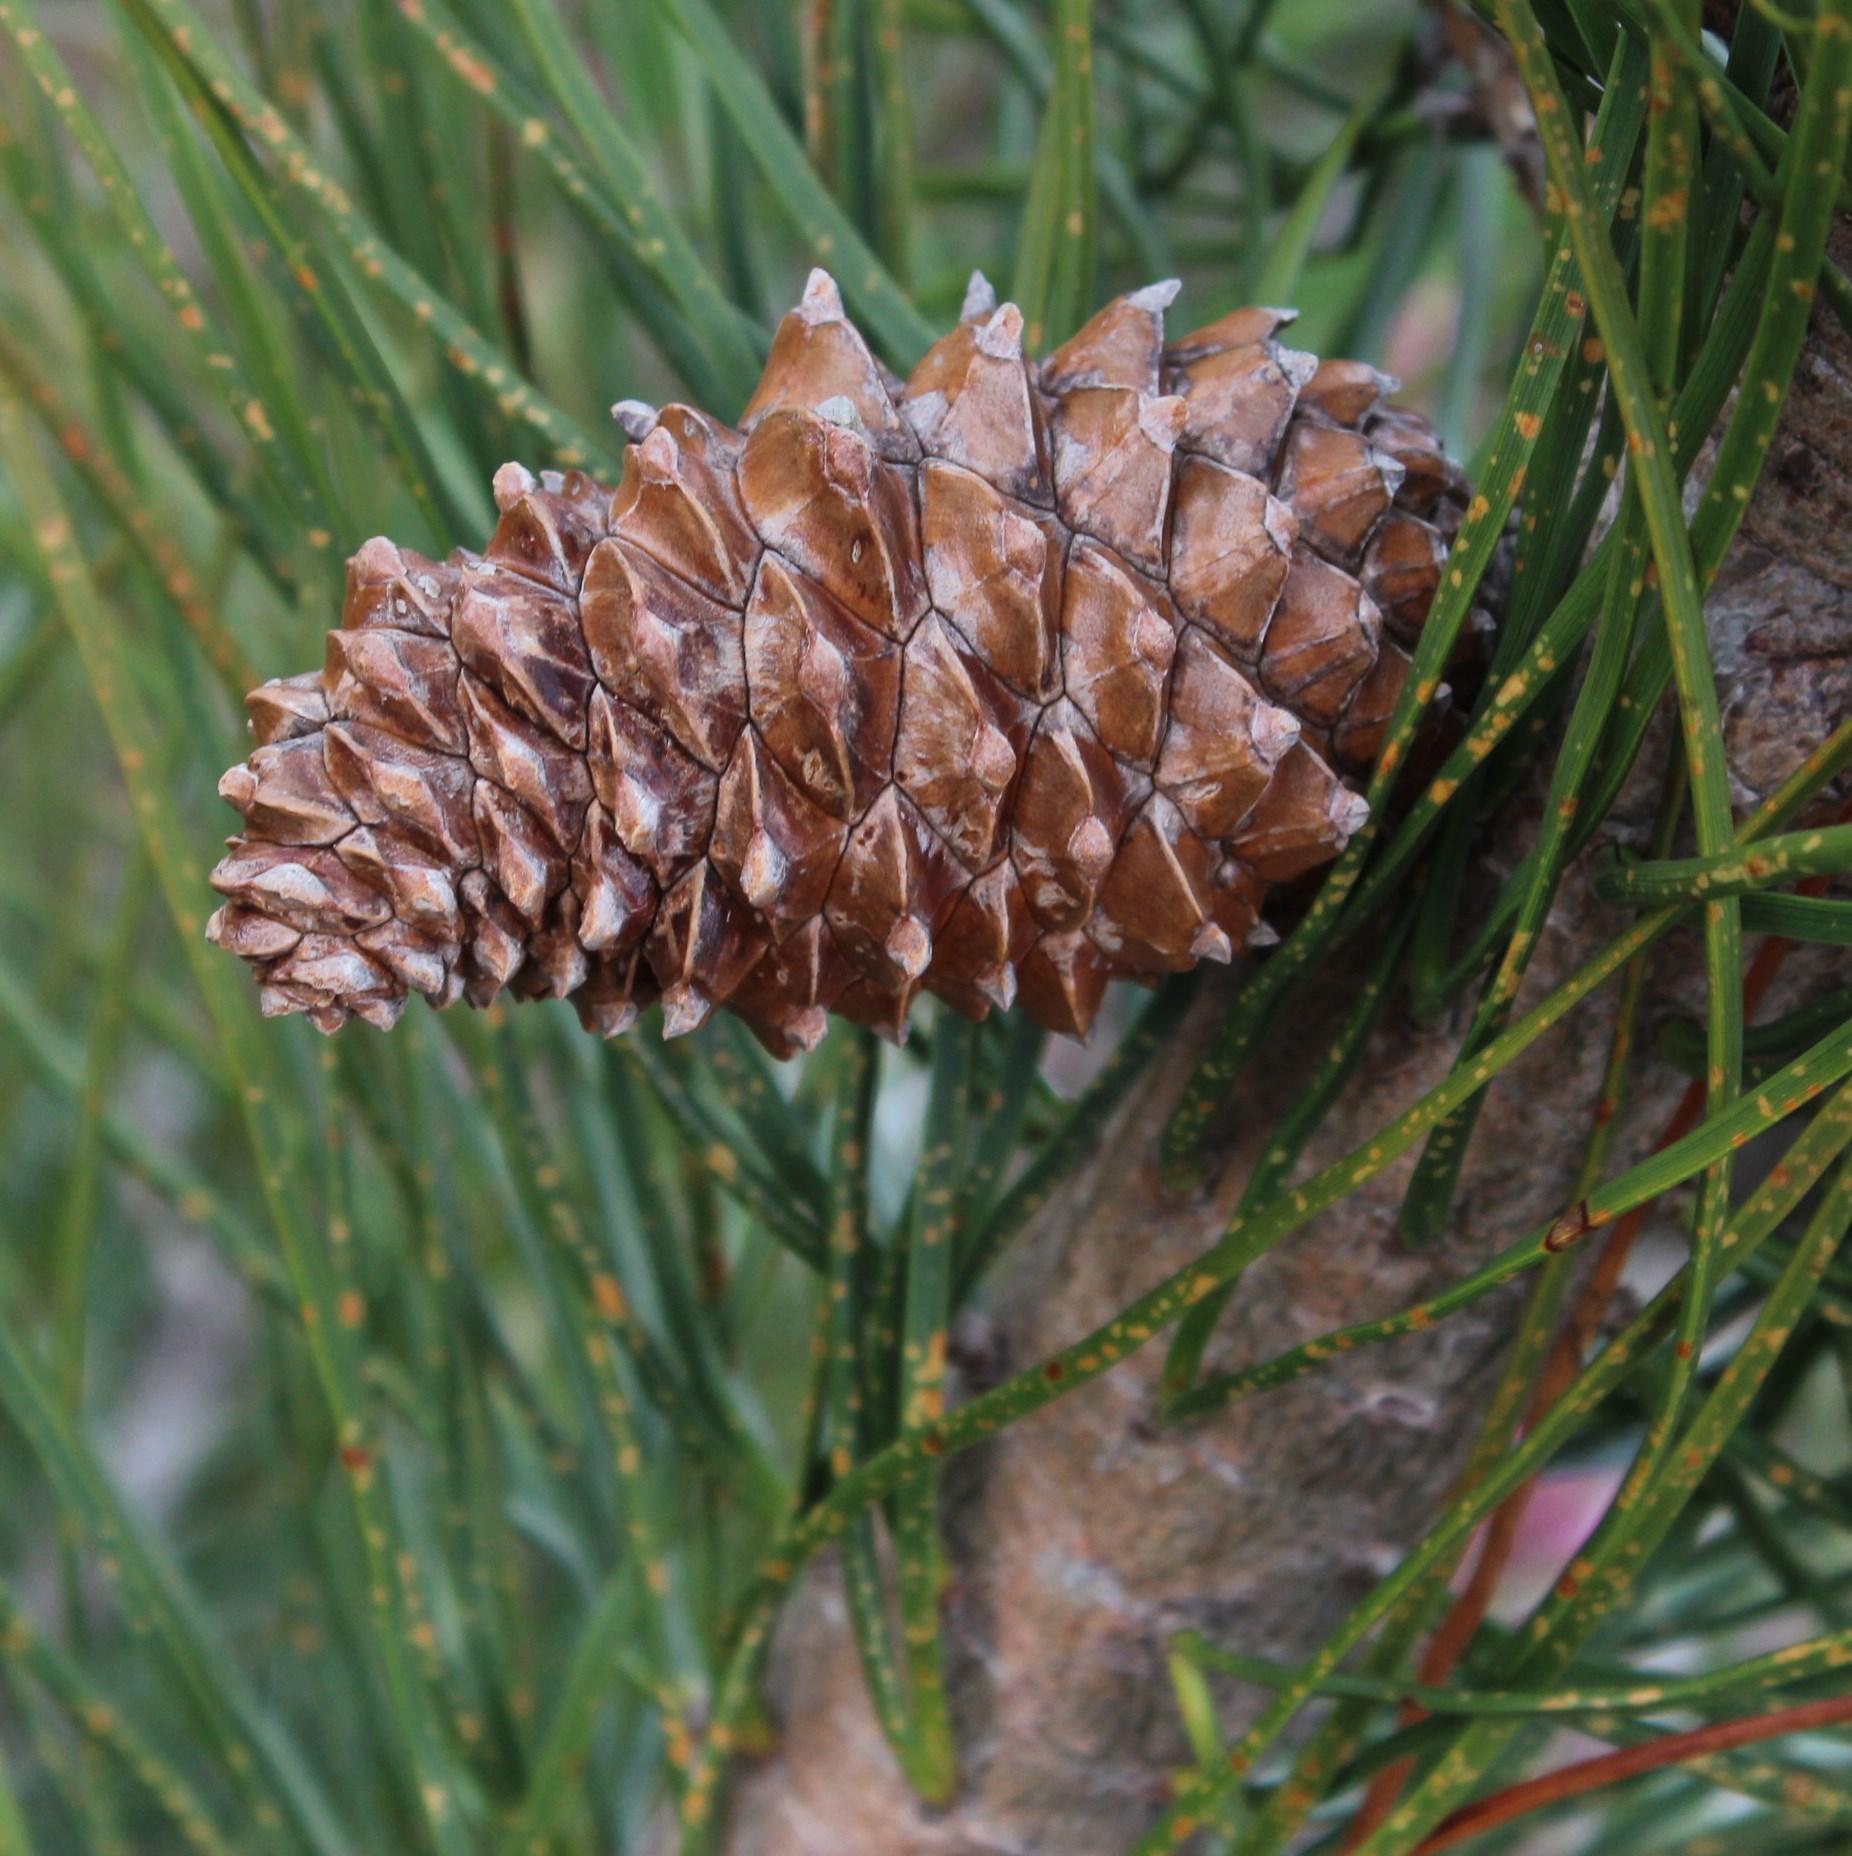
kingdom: Plantae
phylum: Tracheophyta
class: Pinopsida
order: Pinales
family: Pinaceae
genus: Pinus
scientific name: Pinus pinaster
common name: Maritime pine
